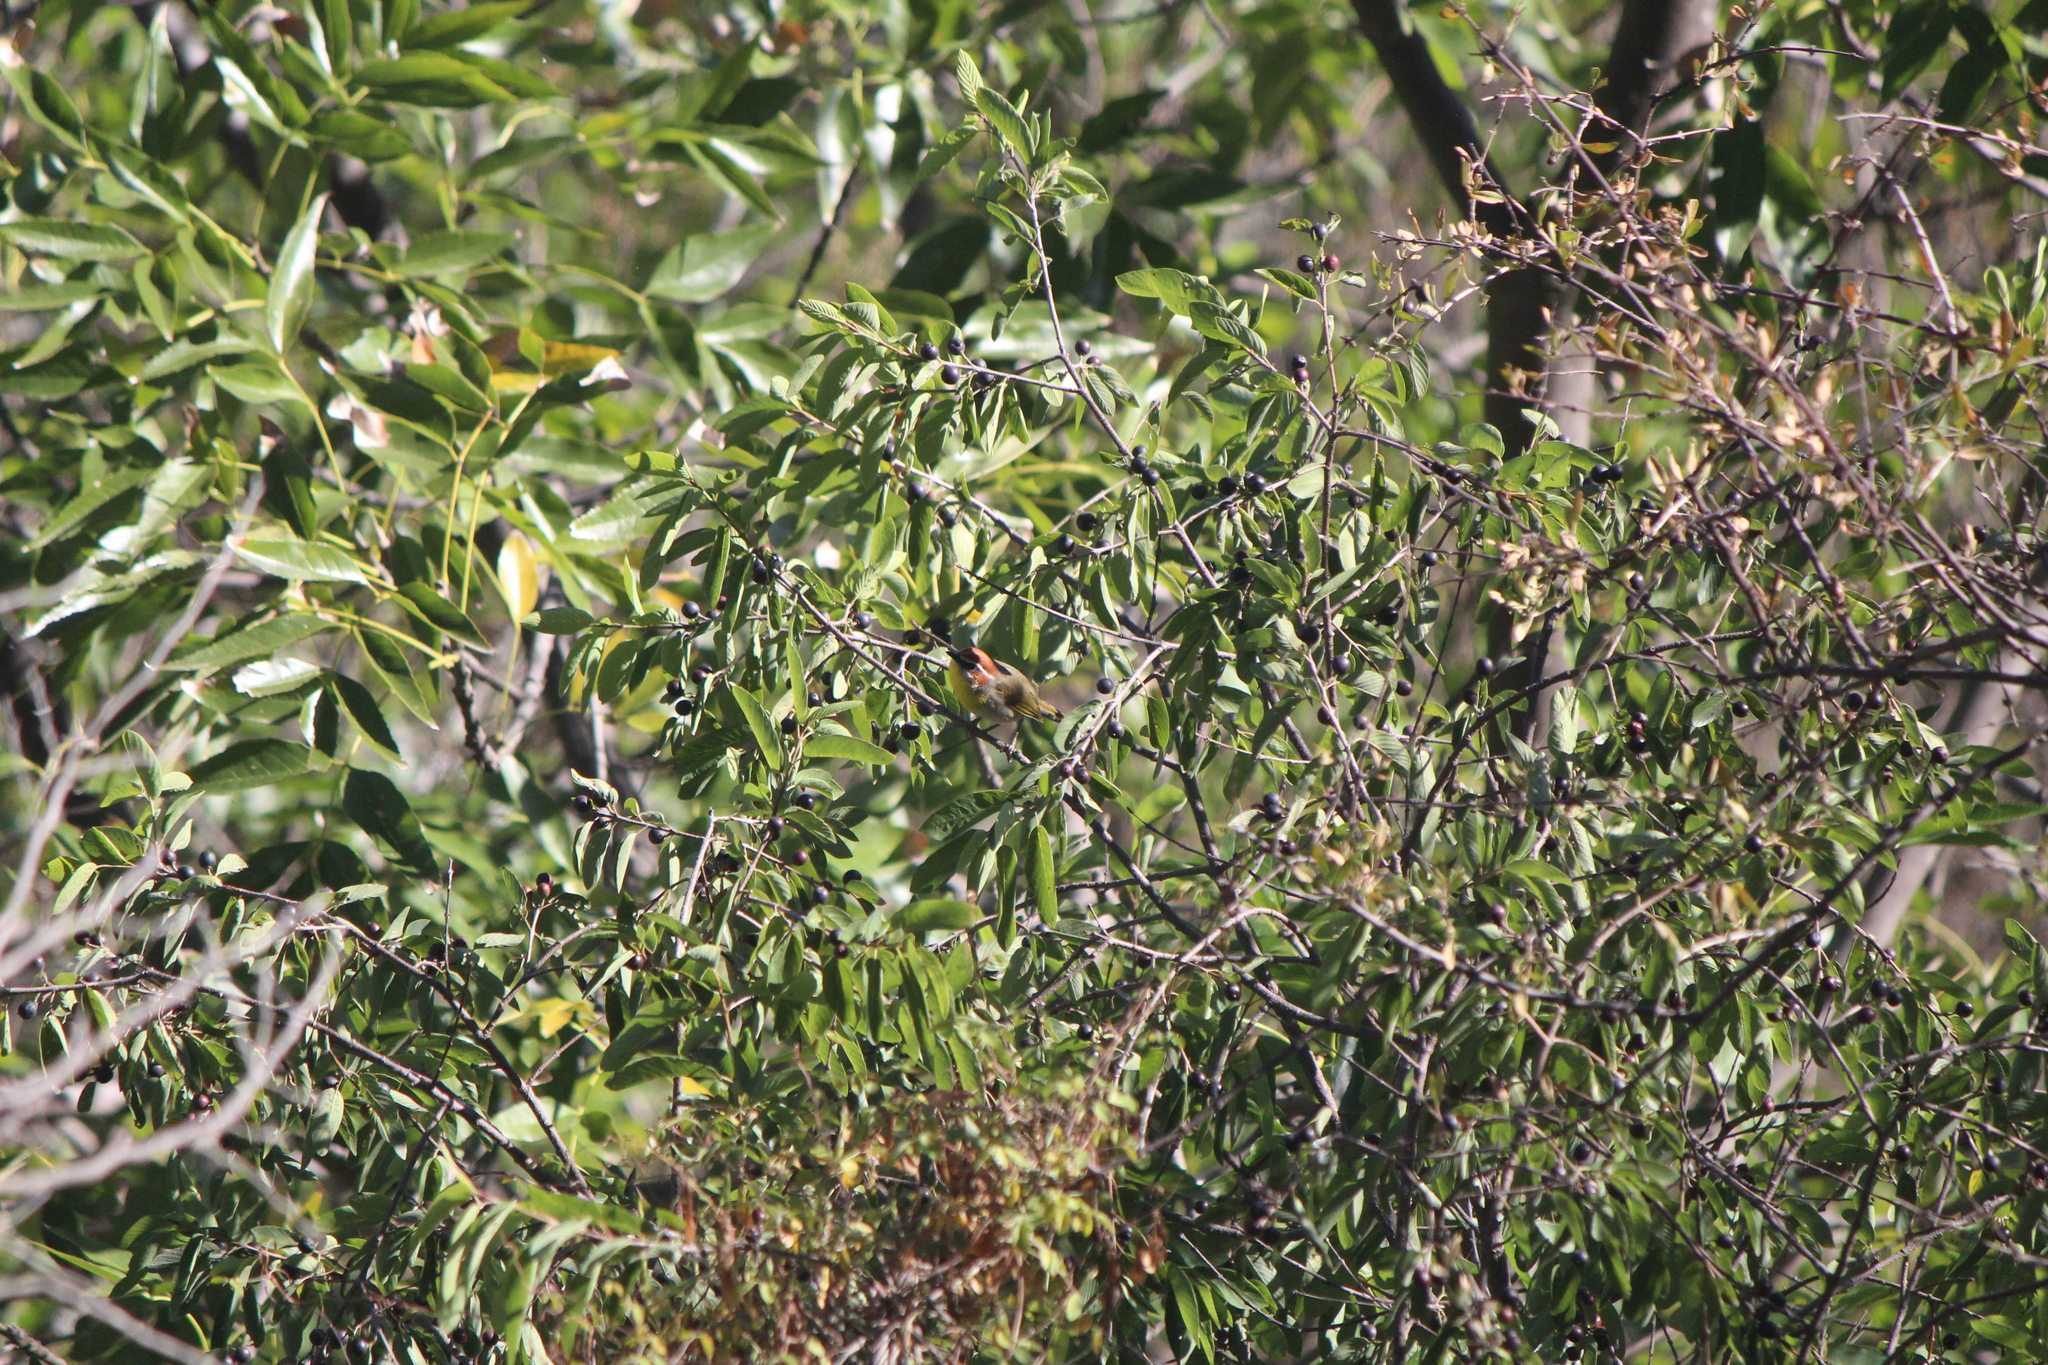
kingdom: Animalia
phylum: Chordata
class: Aves
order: Passeriformes
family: Parulidae
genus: Basileuterus
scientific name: Basileuterus rufifrons
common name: Rufous-capped warbler
